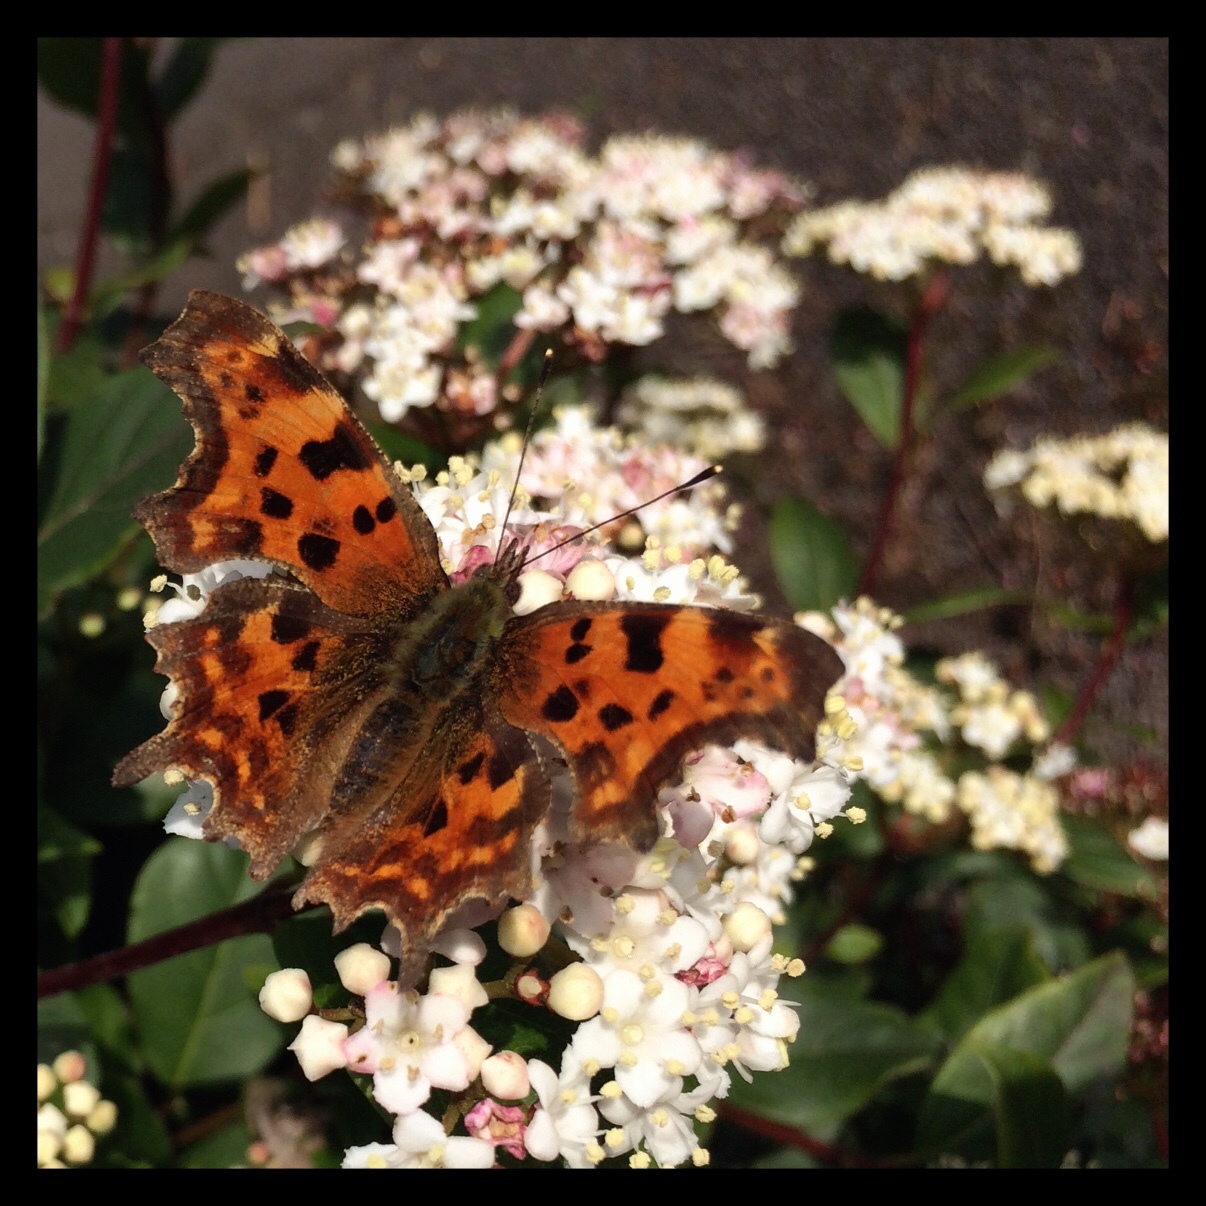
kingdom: Animalia
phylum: Arthropoda
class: Insecta
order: Lepidoptera
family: Nymphalidae
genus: Polygonia
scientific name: Polygonia c-album
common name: Comma
